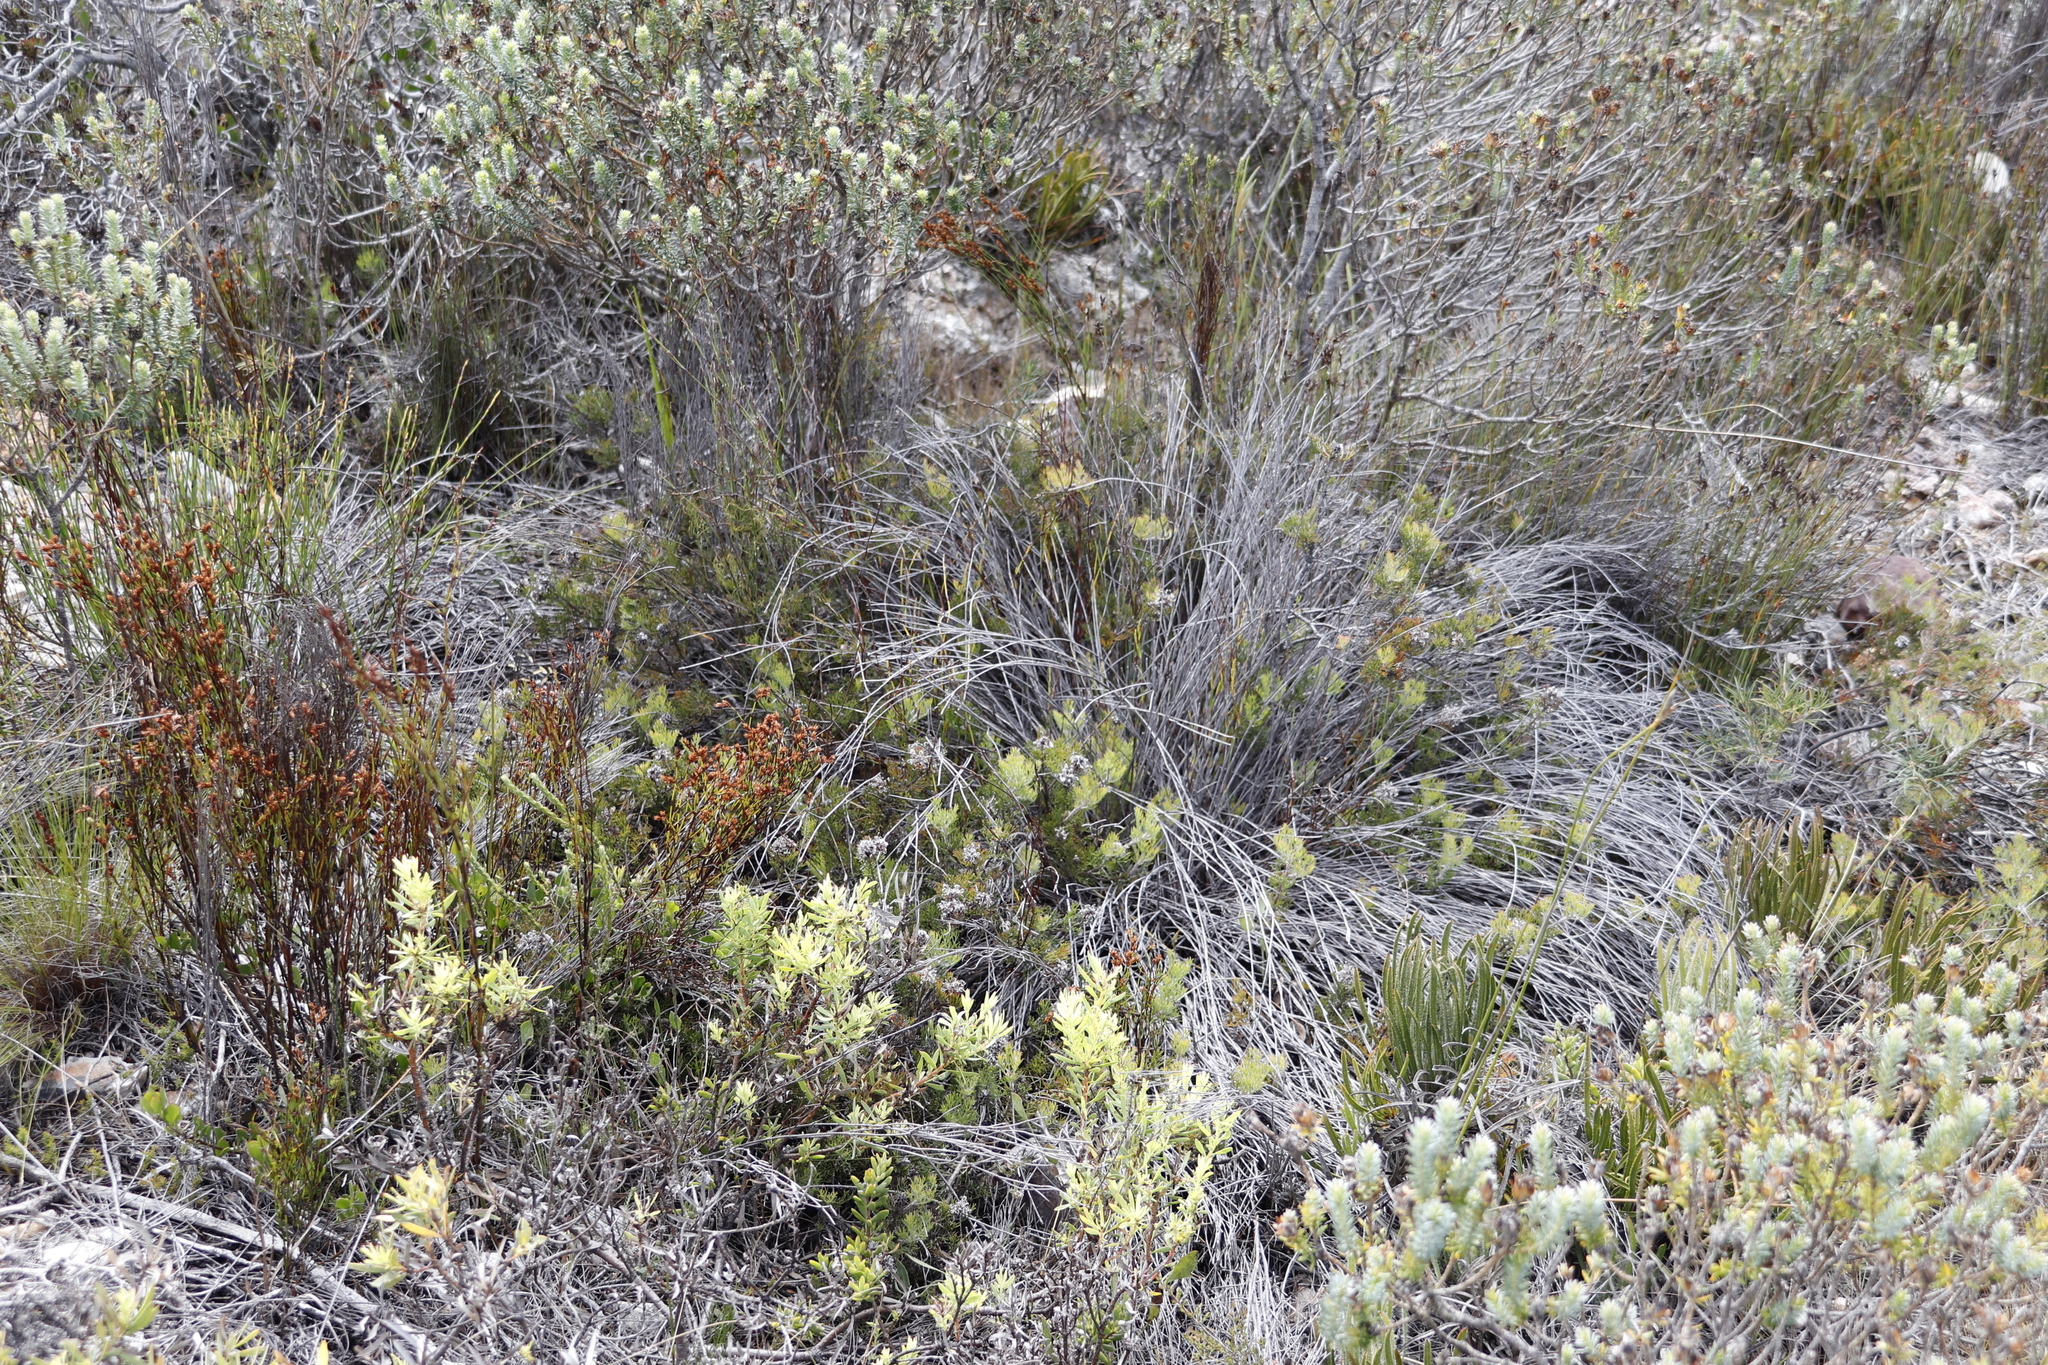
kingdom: Plantae
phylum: Tracheophyta
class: Magnoliopsida
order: Proteales
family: Proteaceae
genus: Serruria
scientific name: Serruria
